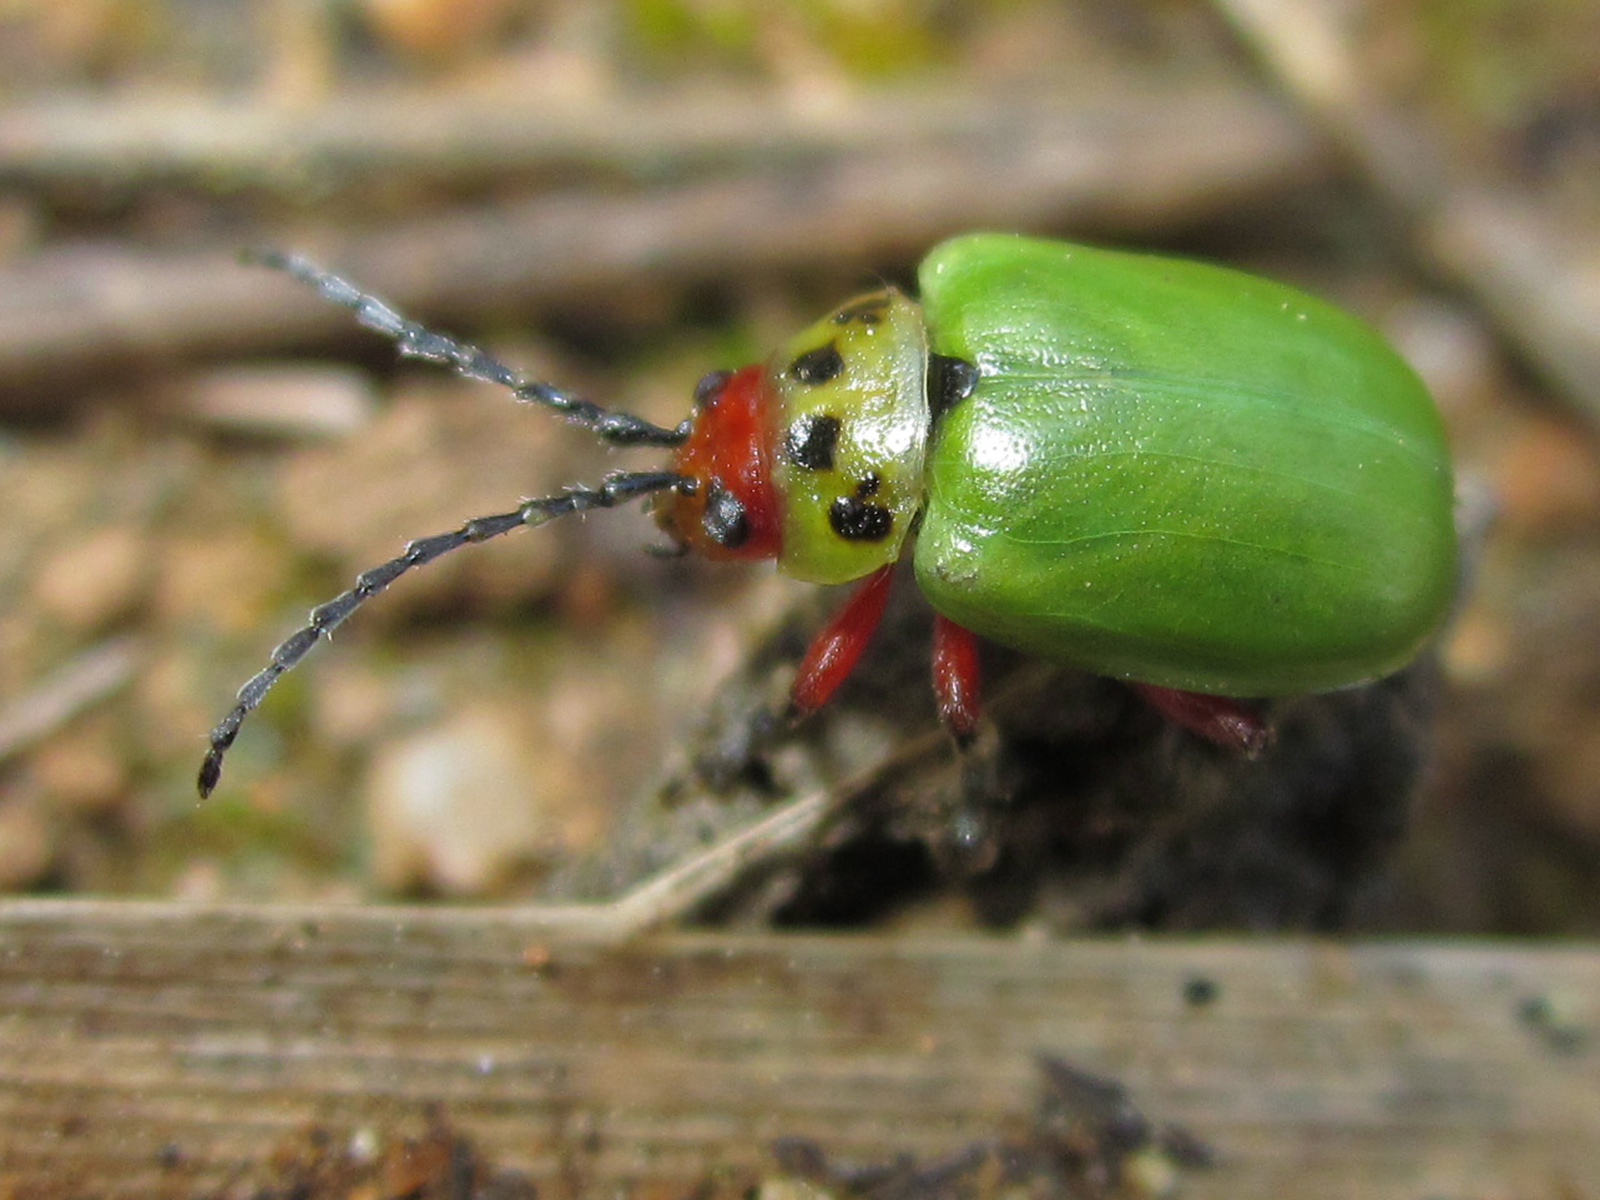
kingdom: Animalia
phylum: Arthropoda
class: Insecta
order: Coleoptera
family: Chrysomelidae
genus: Procalus
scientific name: Procalus
